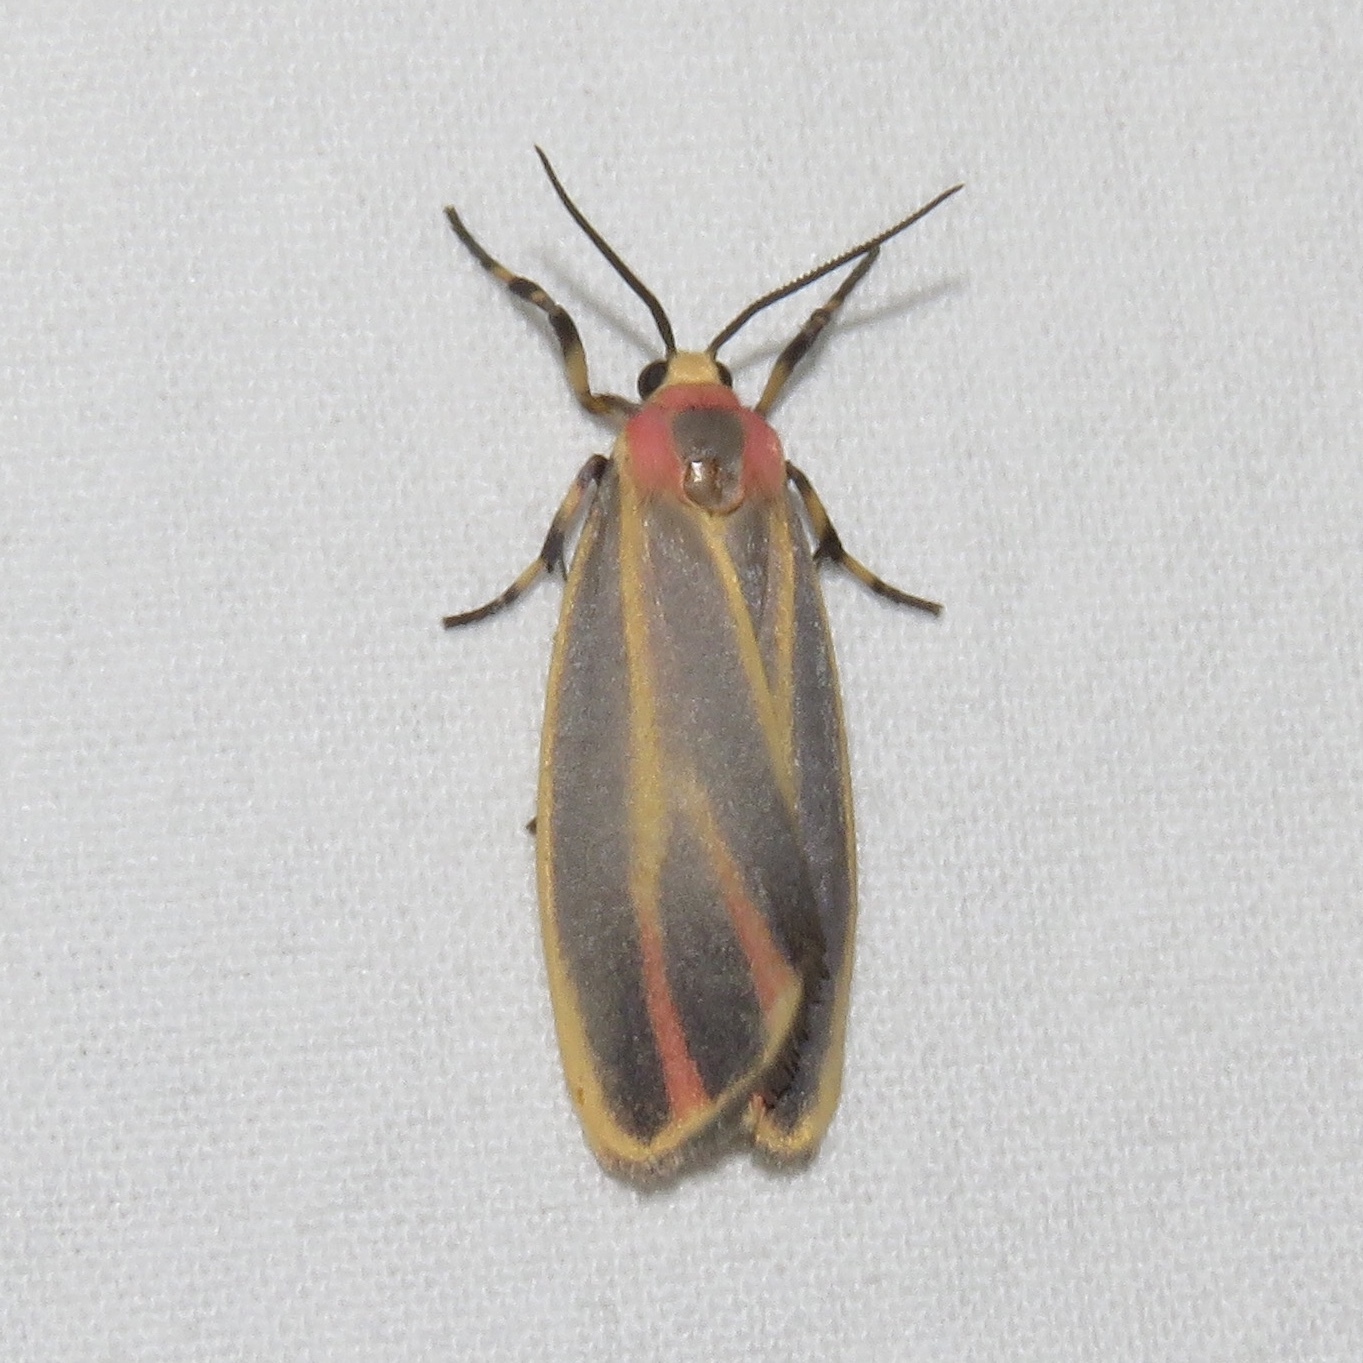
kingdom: Animalia
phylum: Arthropoda
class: Insecta
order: Lepidoptera
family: Erebidae
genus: Hypoprepia
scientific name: Hypoprepia fucosa
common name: Painted lichen moth
